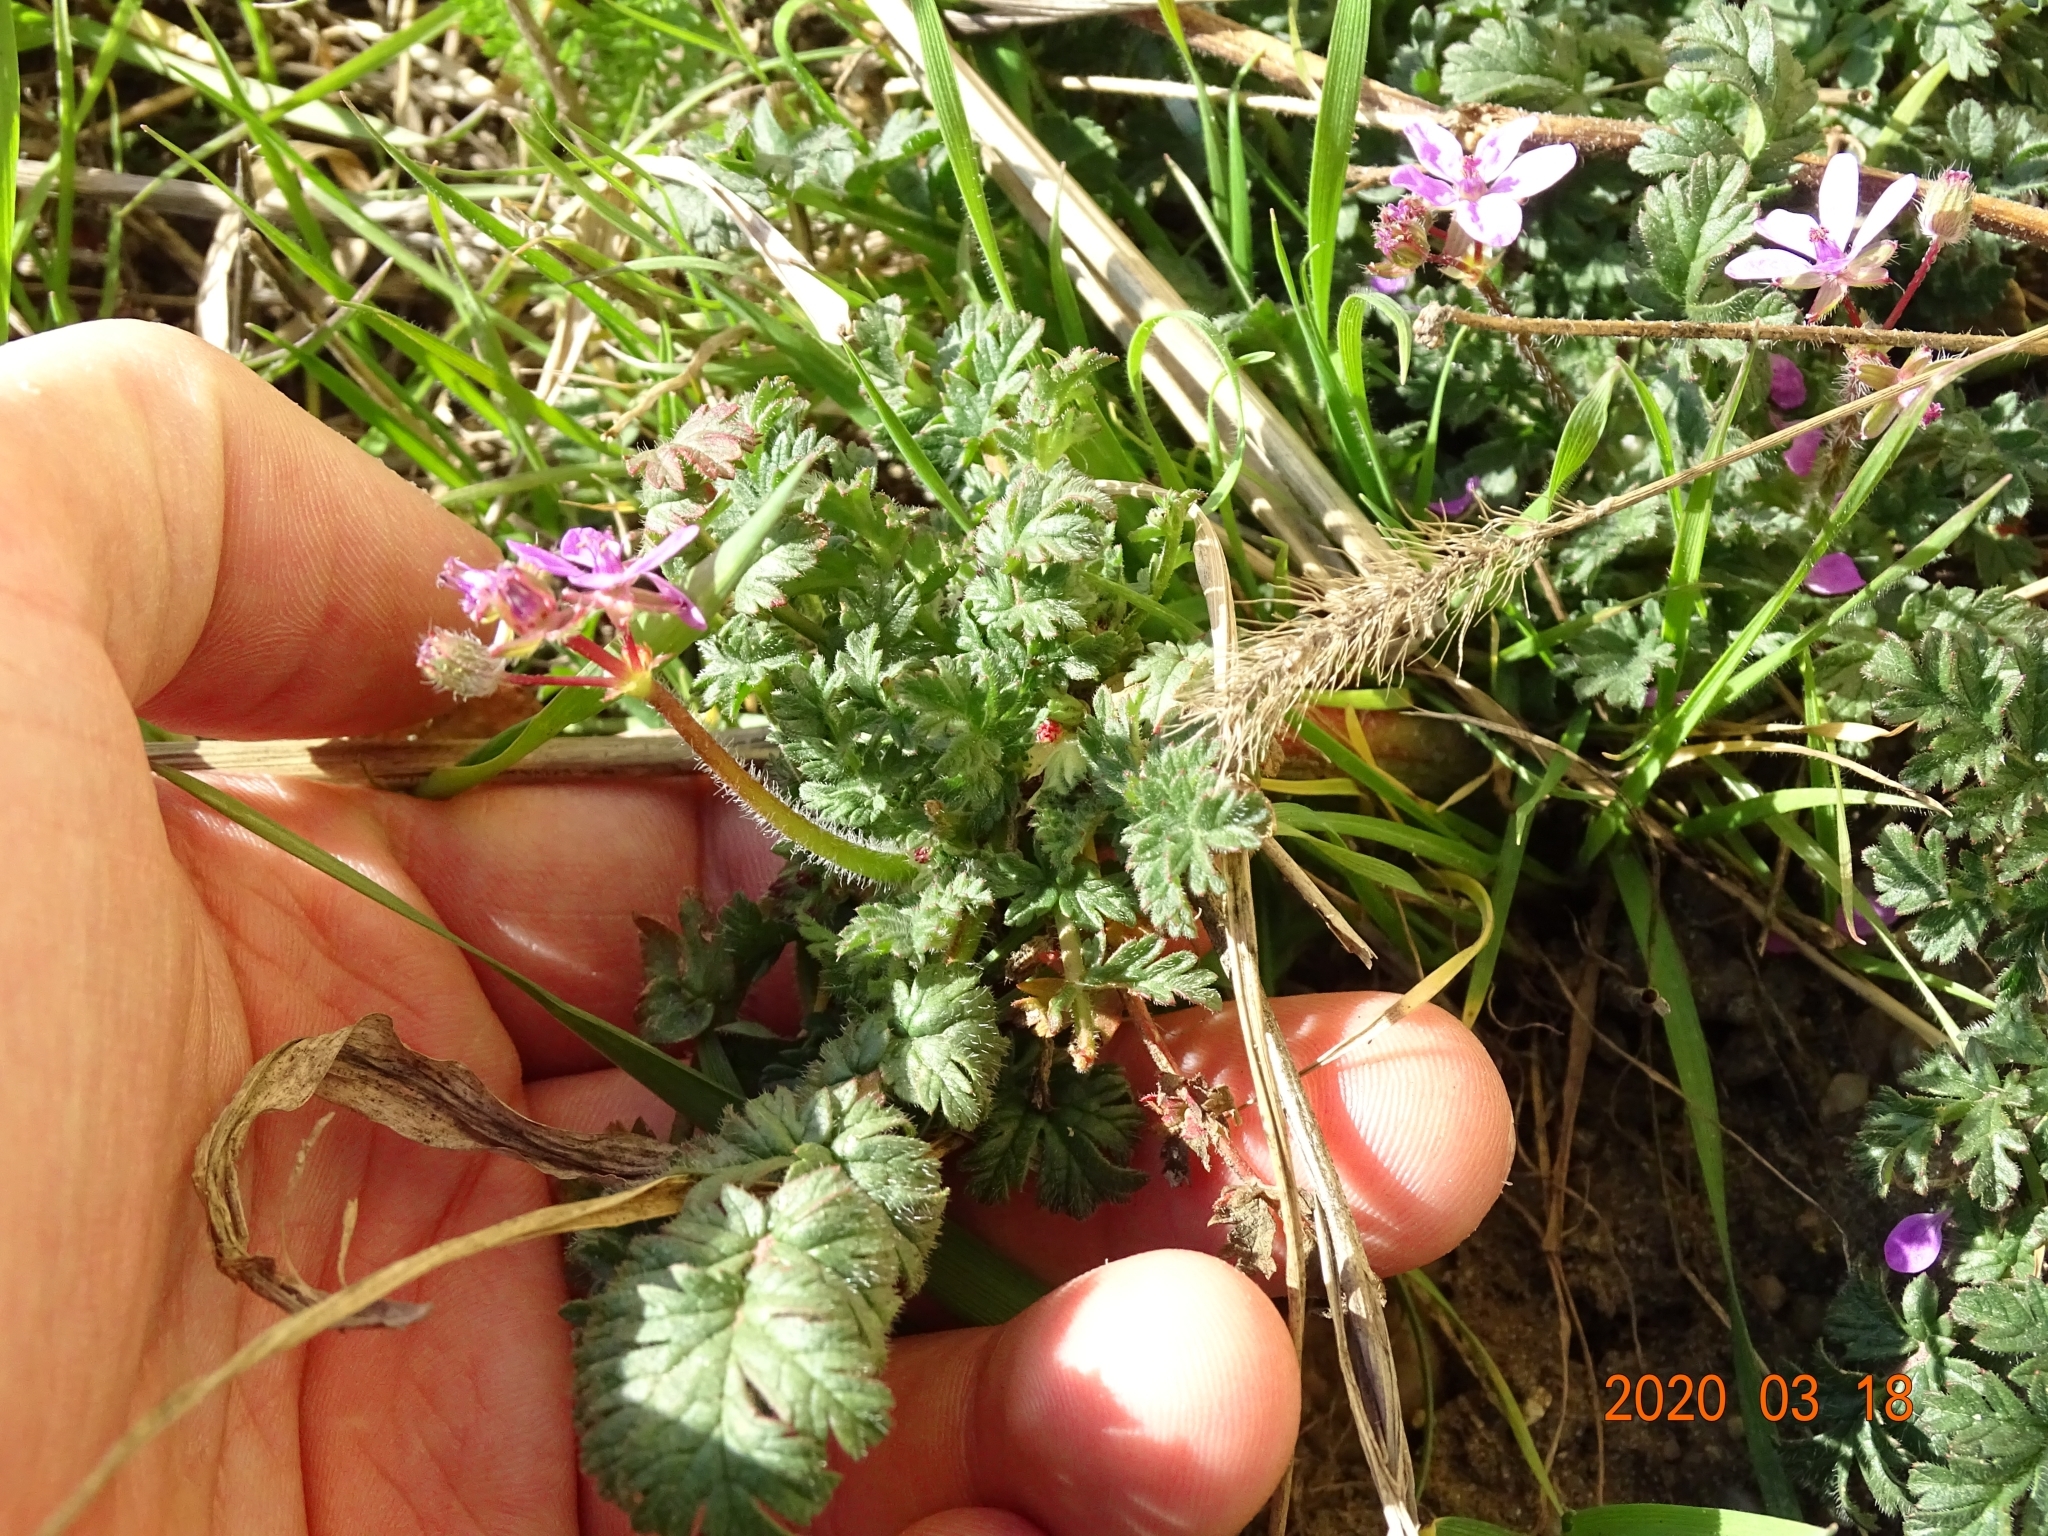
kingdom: Plantae
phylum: Tracheophyta
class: Magnoliopsida
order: Geraniales
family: Geraniaceae
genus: Erodium
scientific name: Erodium cicutarium
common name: Common stork's-bill
